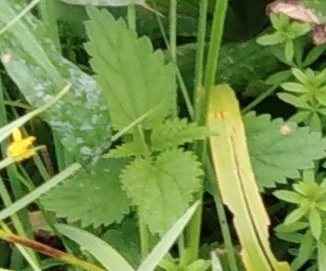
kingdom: Plantae
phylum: Tracheophyta
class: Magnoliopsida
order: Rosales
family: Urticaceae
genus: Urtica
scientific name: Urtica dioica
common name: Common nettle
